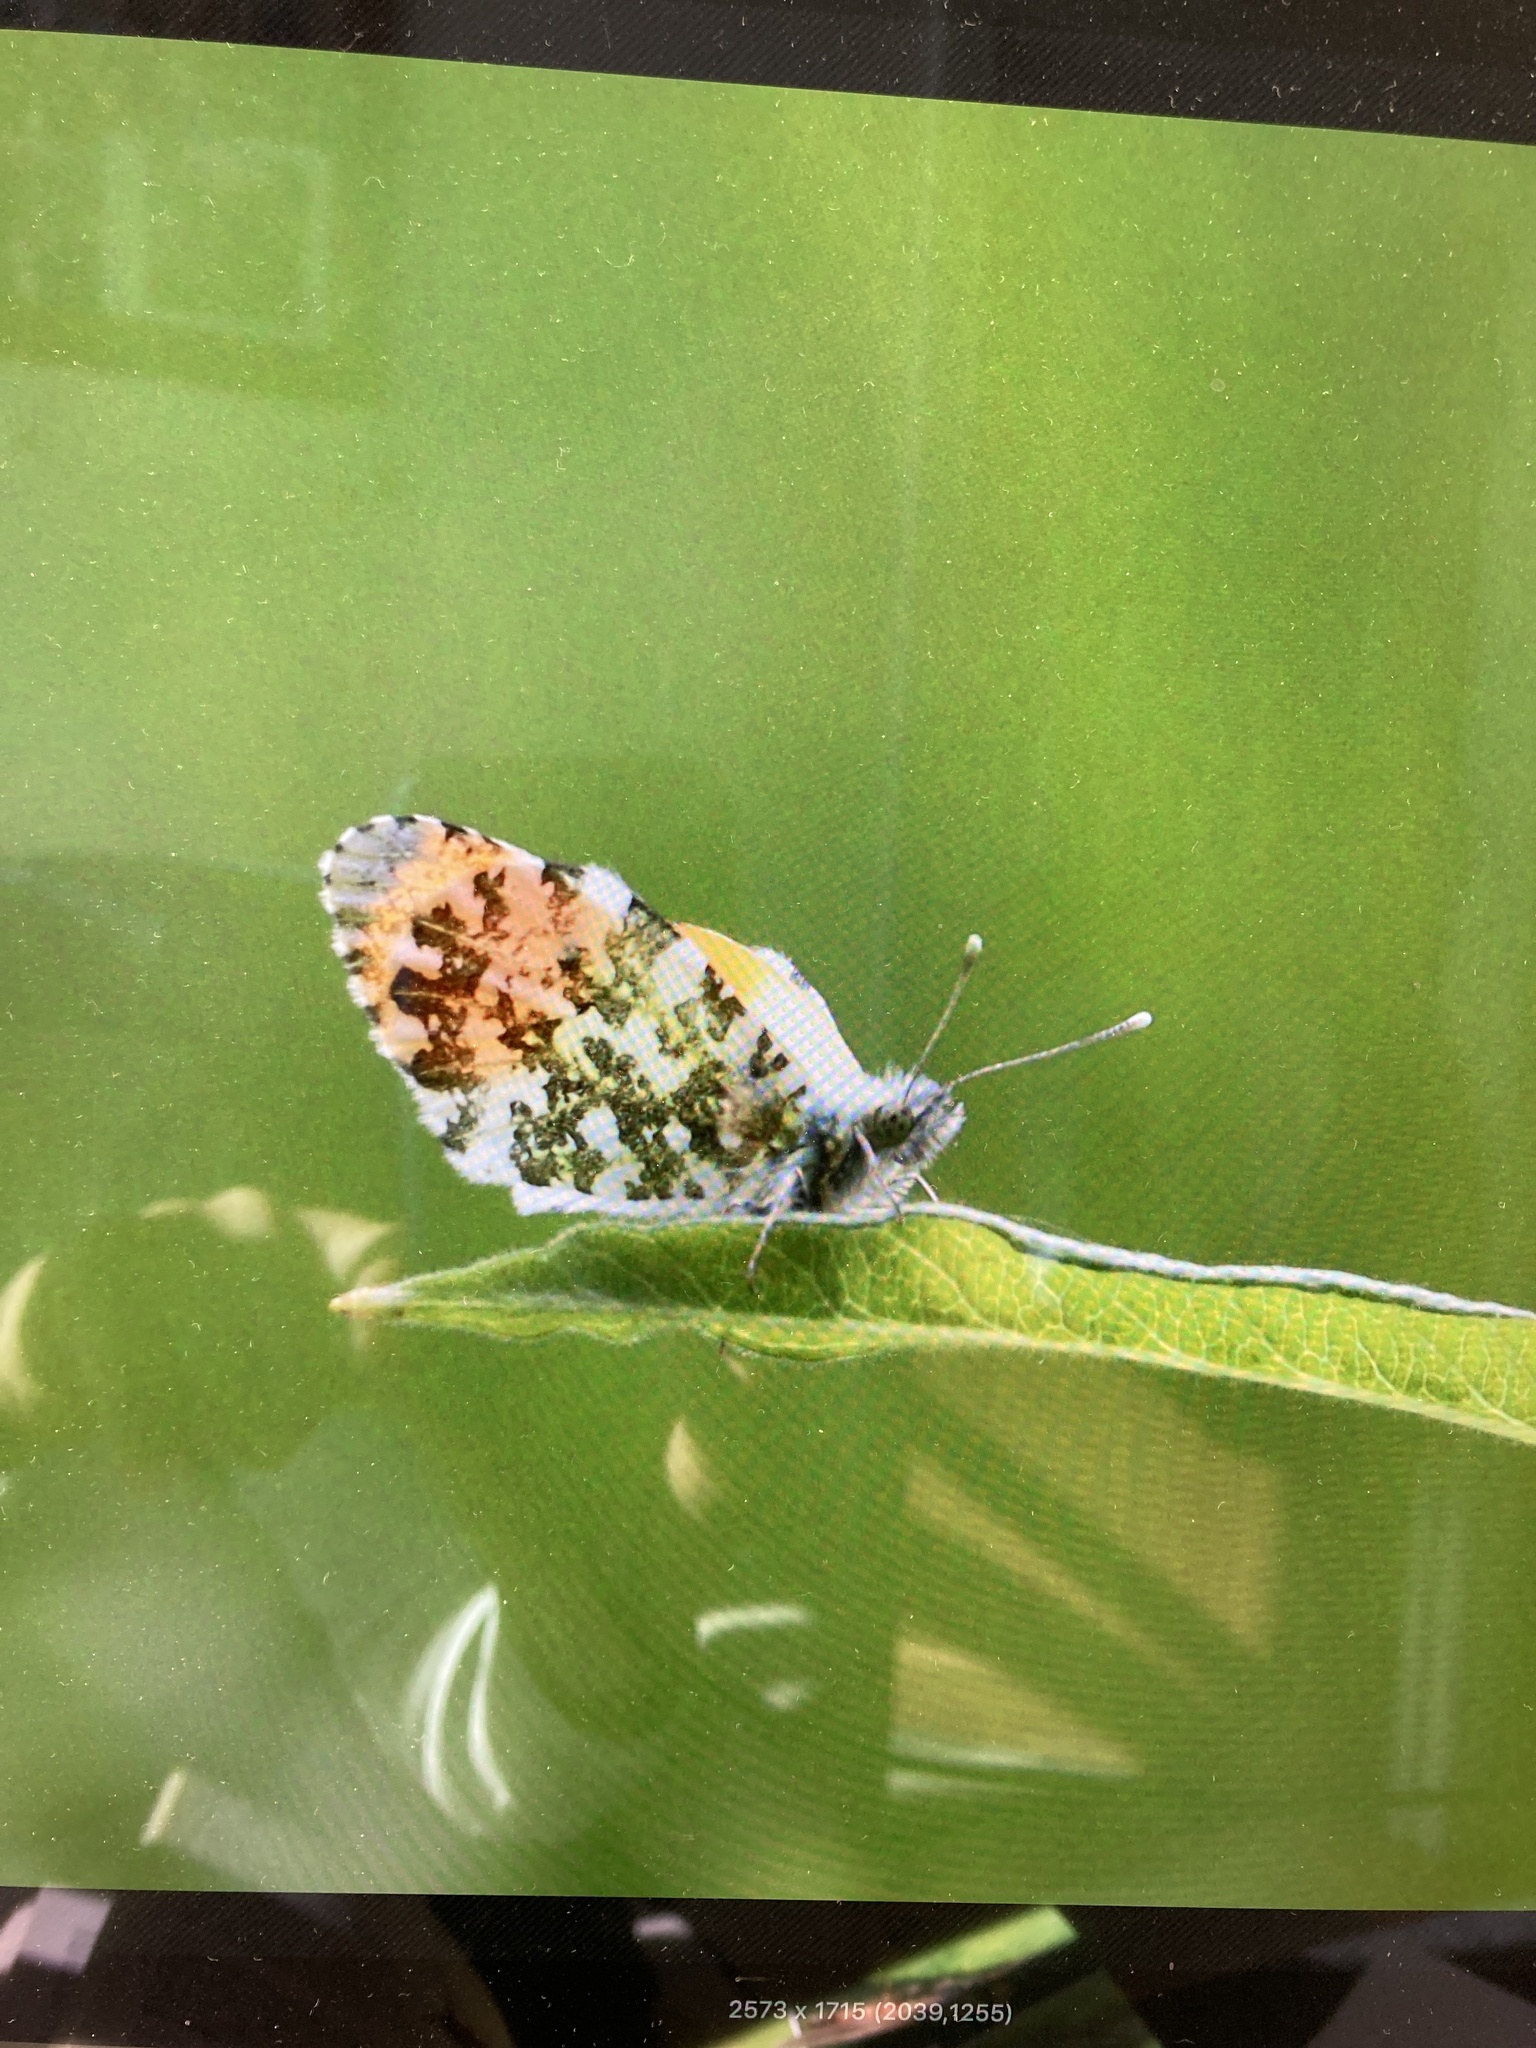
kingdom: Animalia
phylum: Arthropoda
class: Insecta
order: Lepidoptera
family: Pieridae
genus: Anthocharis
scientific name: Anthocharis cardamines
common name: Orange-tip
